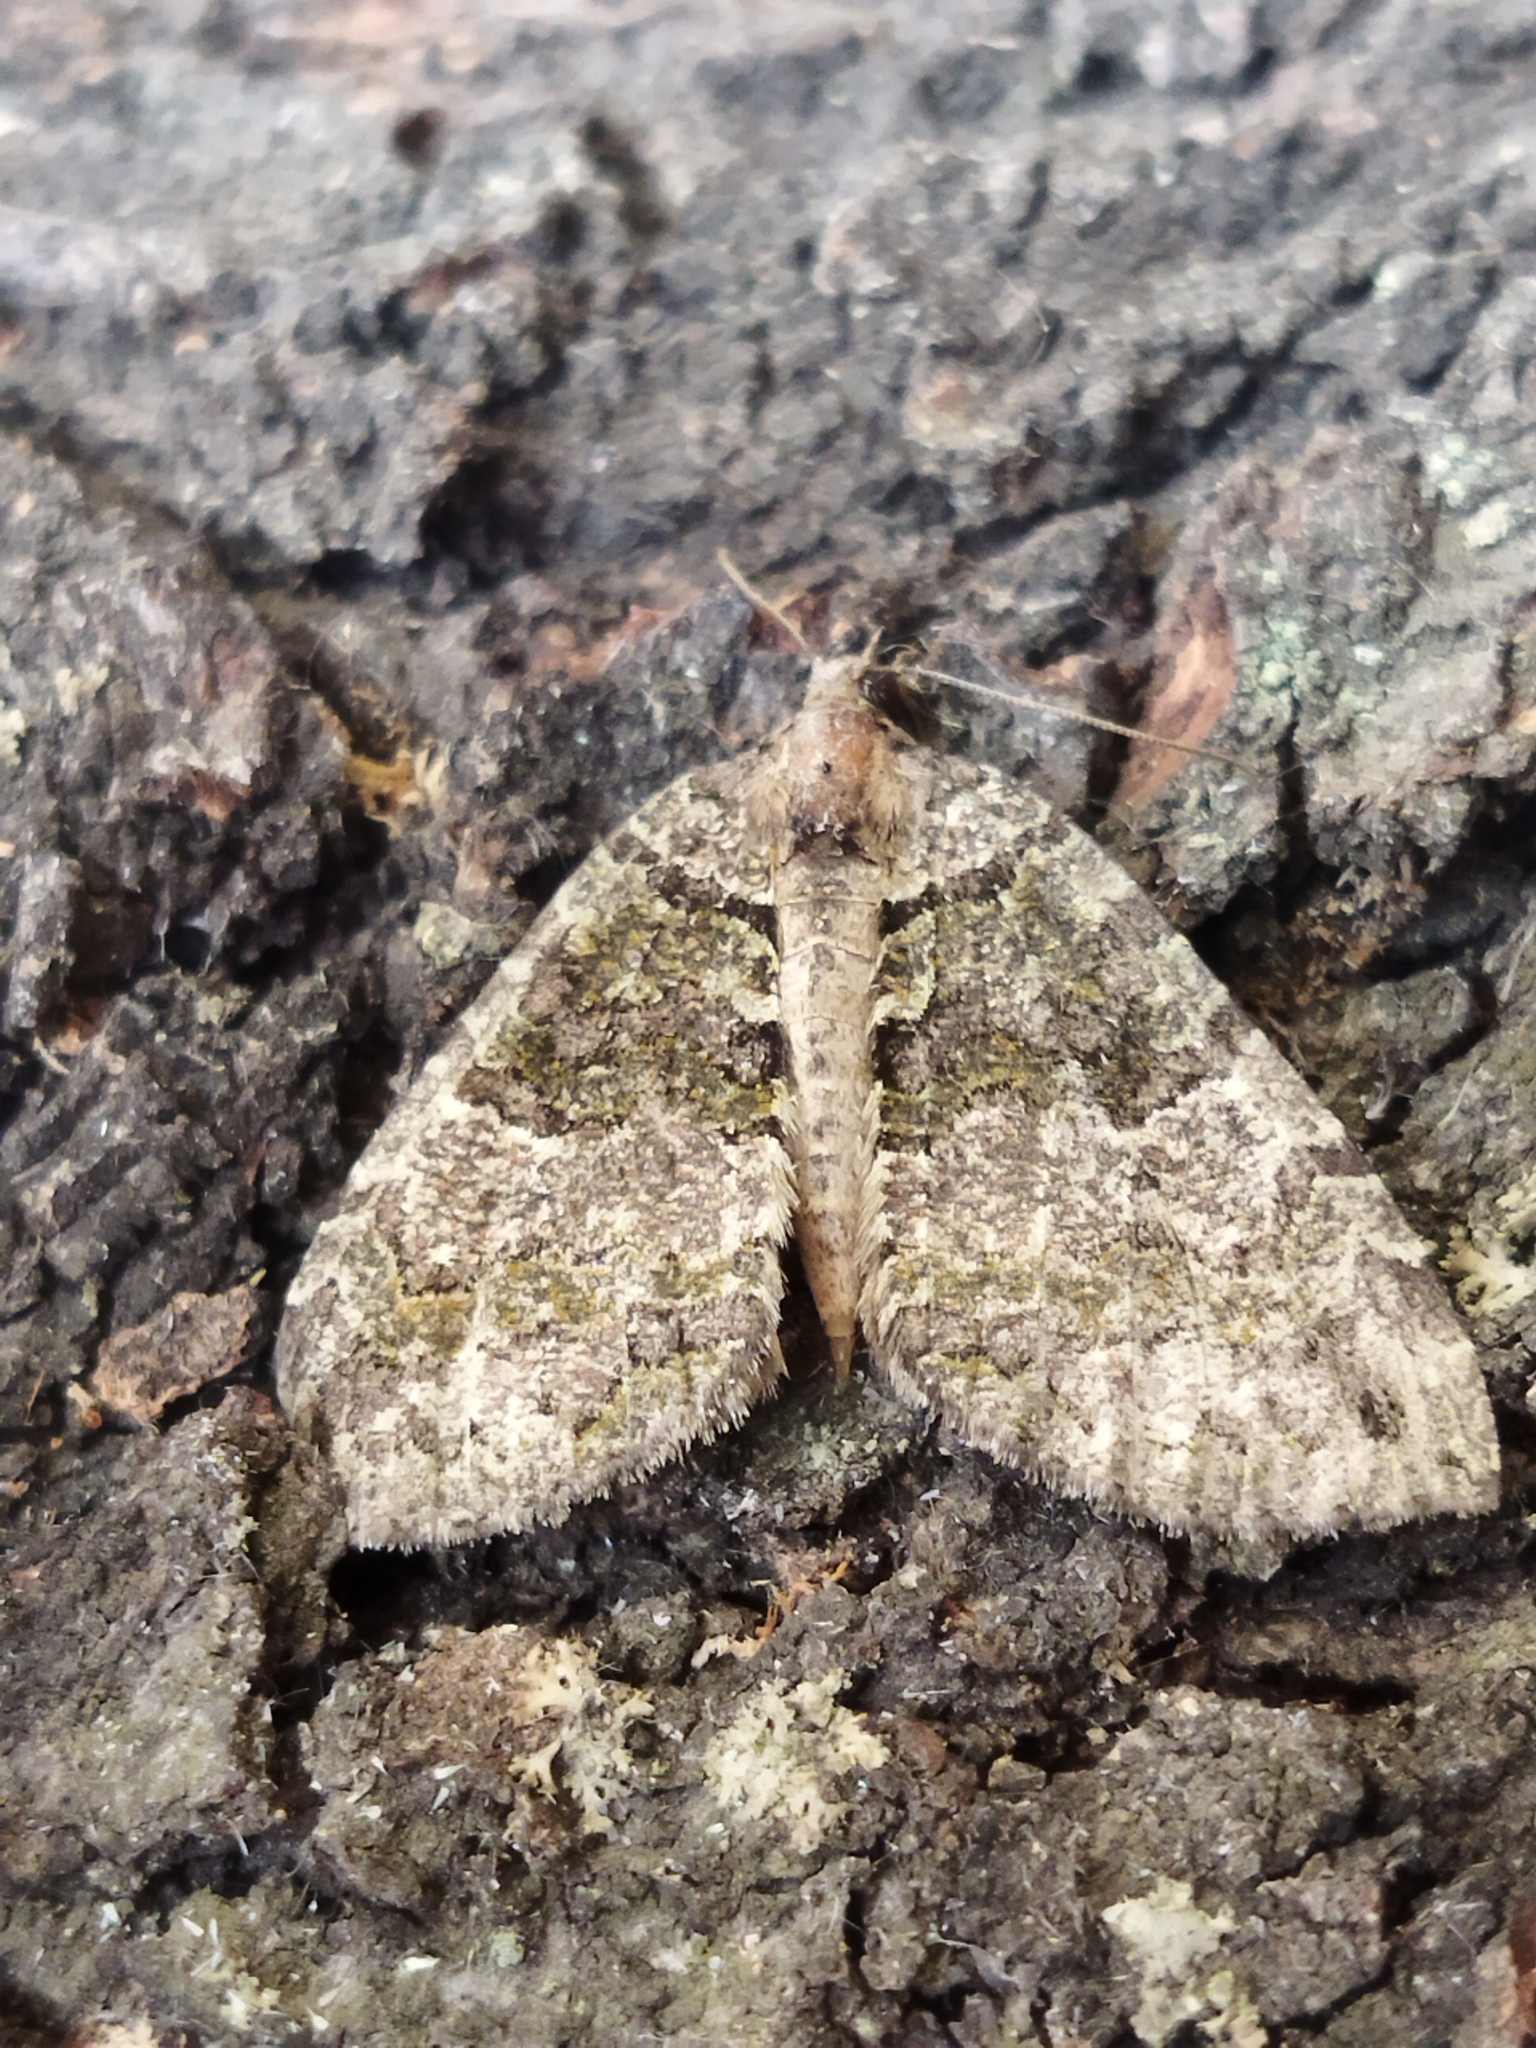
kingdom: Animalia
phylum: Arthropoda
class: Insecta
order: Lepidoptera
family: Geometridae
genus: Hydriomena
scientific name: Hydriomena furcata
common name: July highflyer
